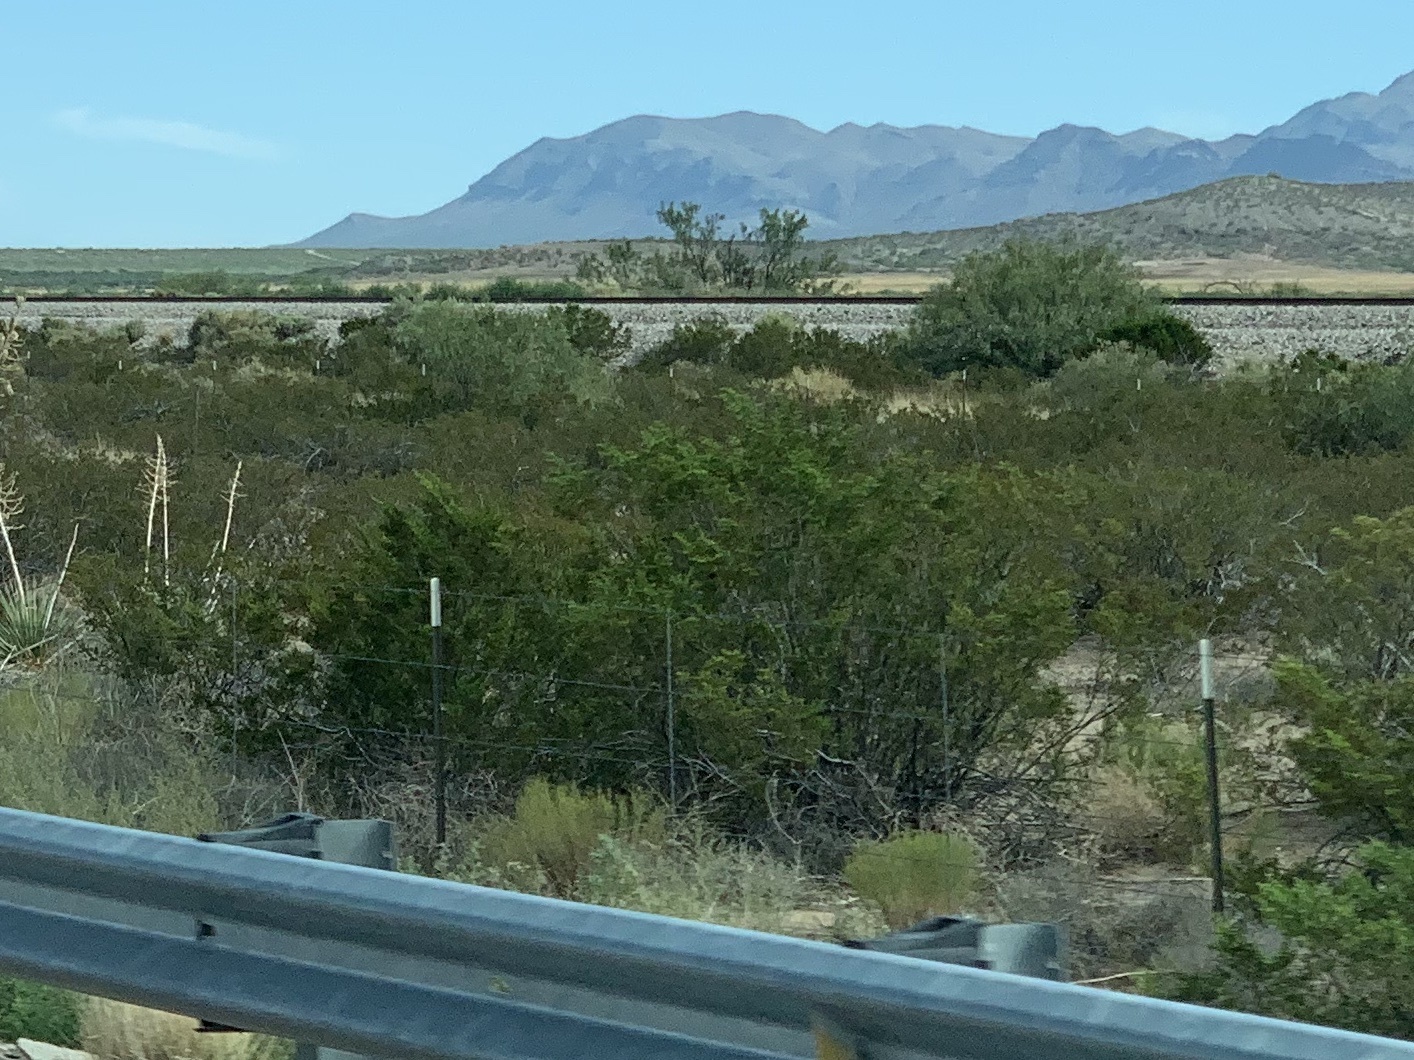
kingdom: Plantae
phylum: Tracheophyta
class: Magnoliopsida
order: Zygophyllales
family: Zygophyllaceae
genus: Larrea
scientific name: Larrea tridentata
